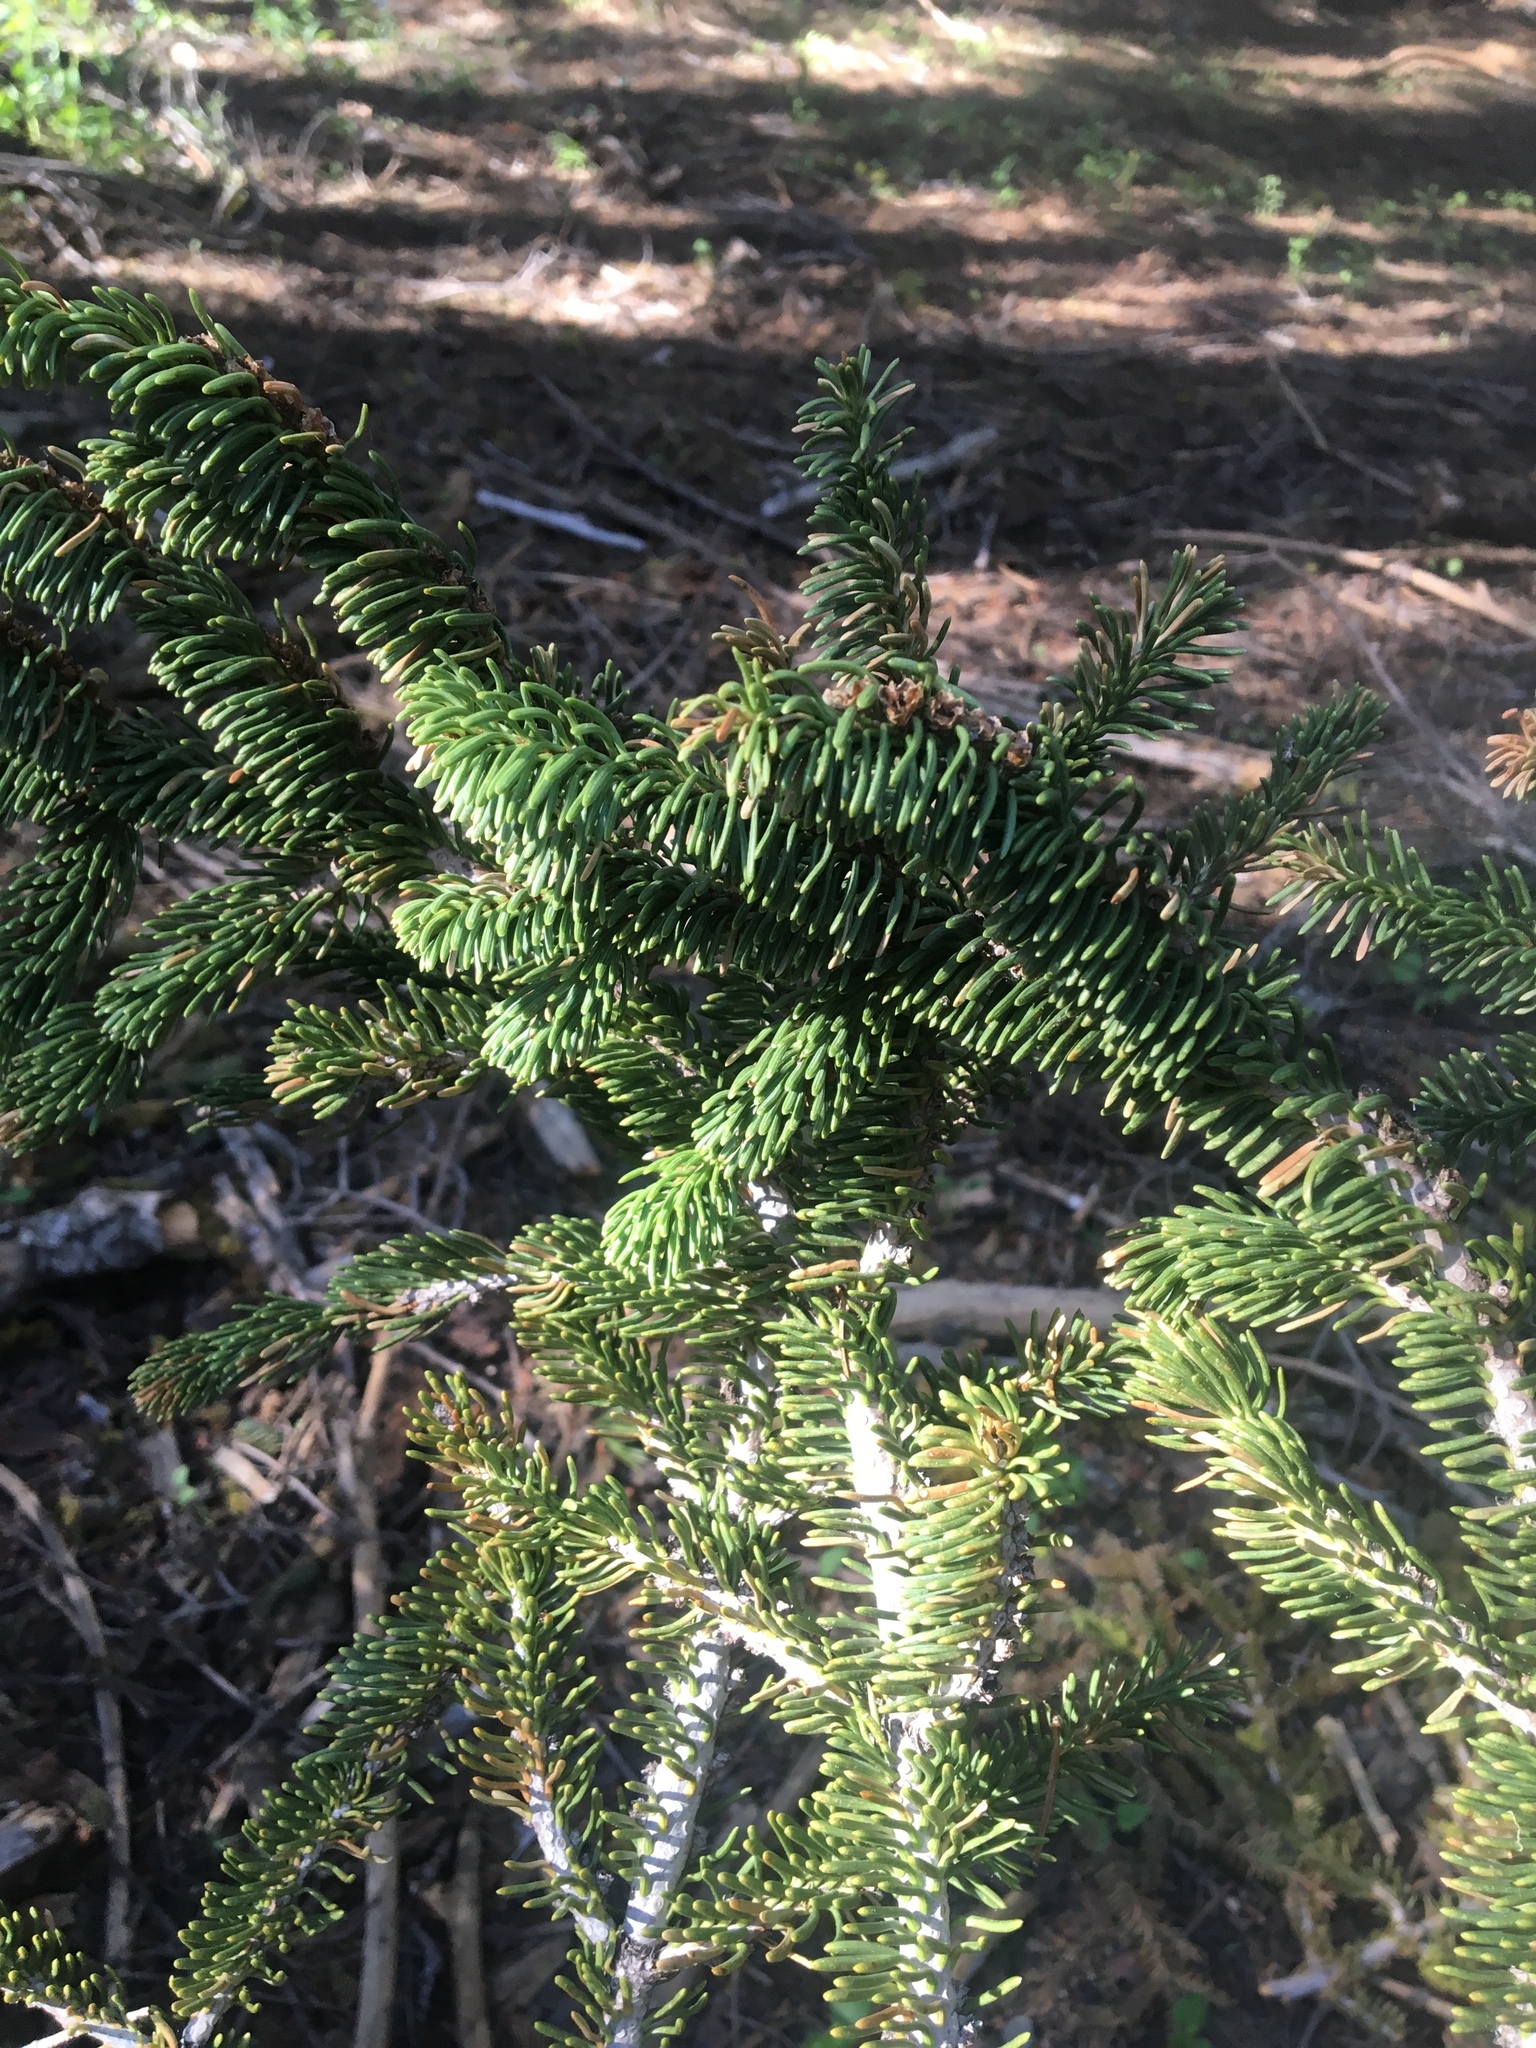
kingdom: Plantae
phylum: Tracheophyta
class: Pinopsida
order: Pinales
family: Pinaceae
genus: Abies
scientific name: Abies magnifica bis
